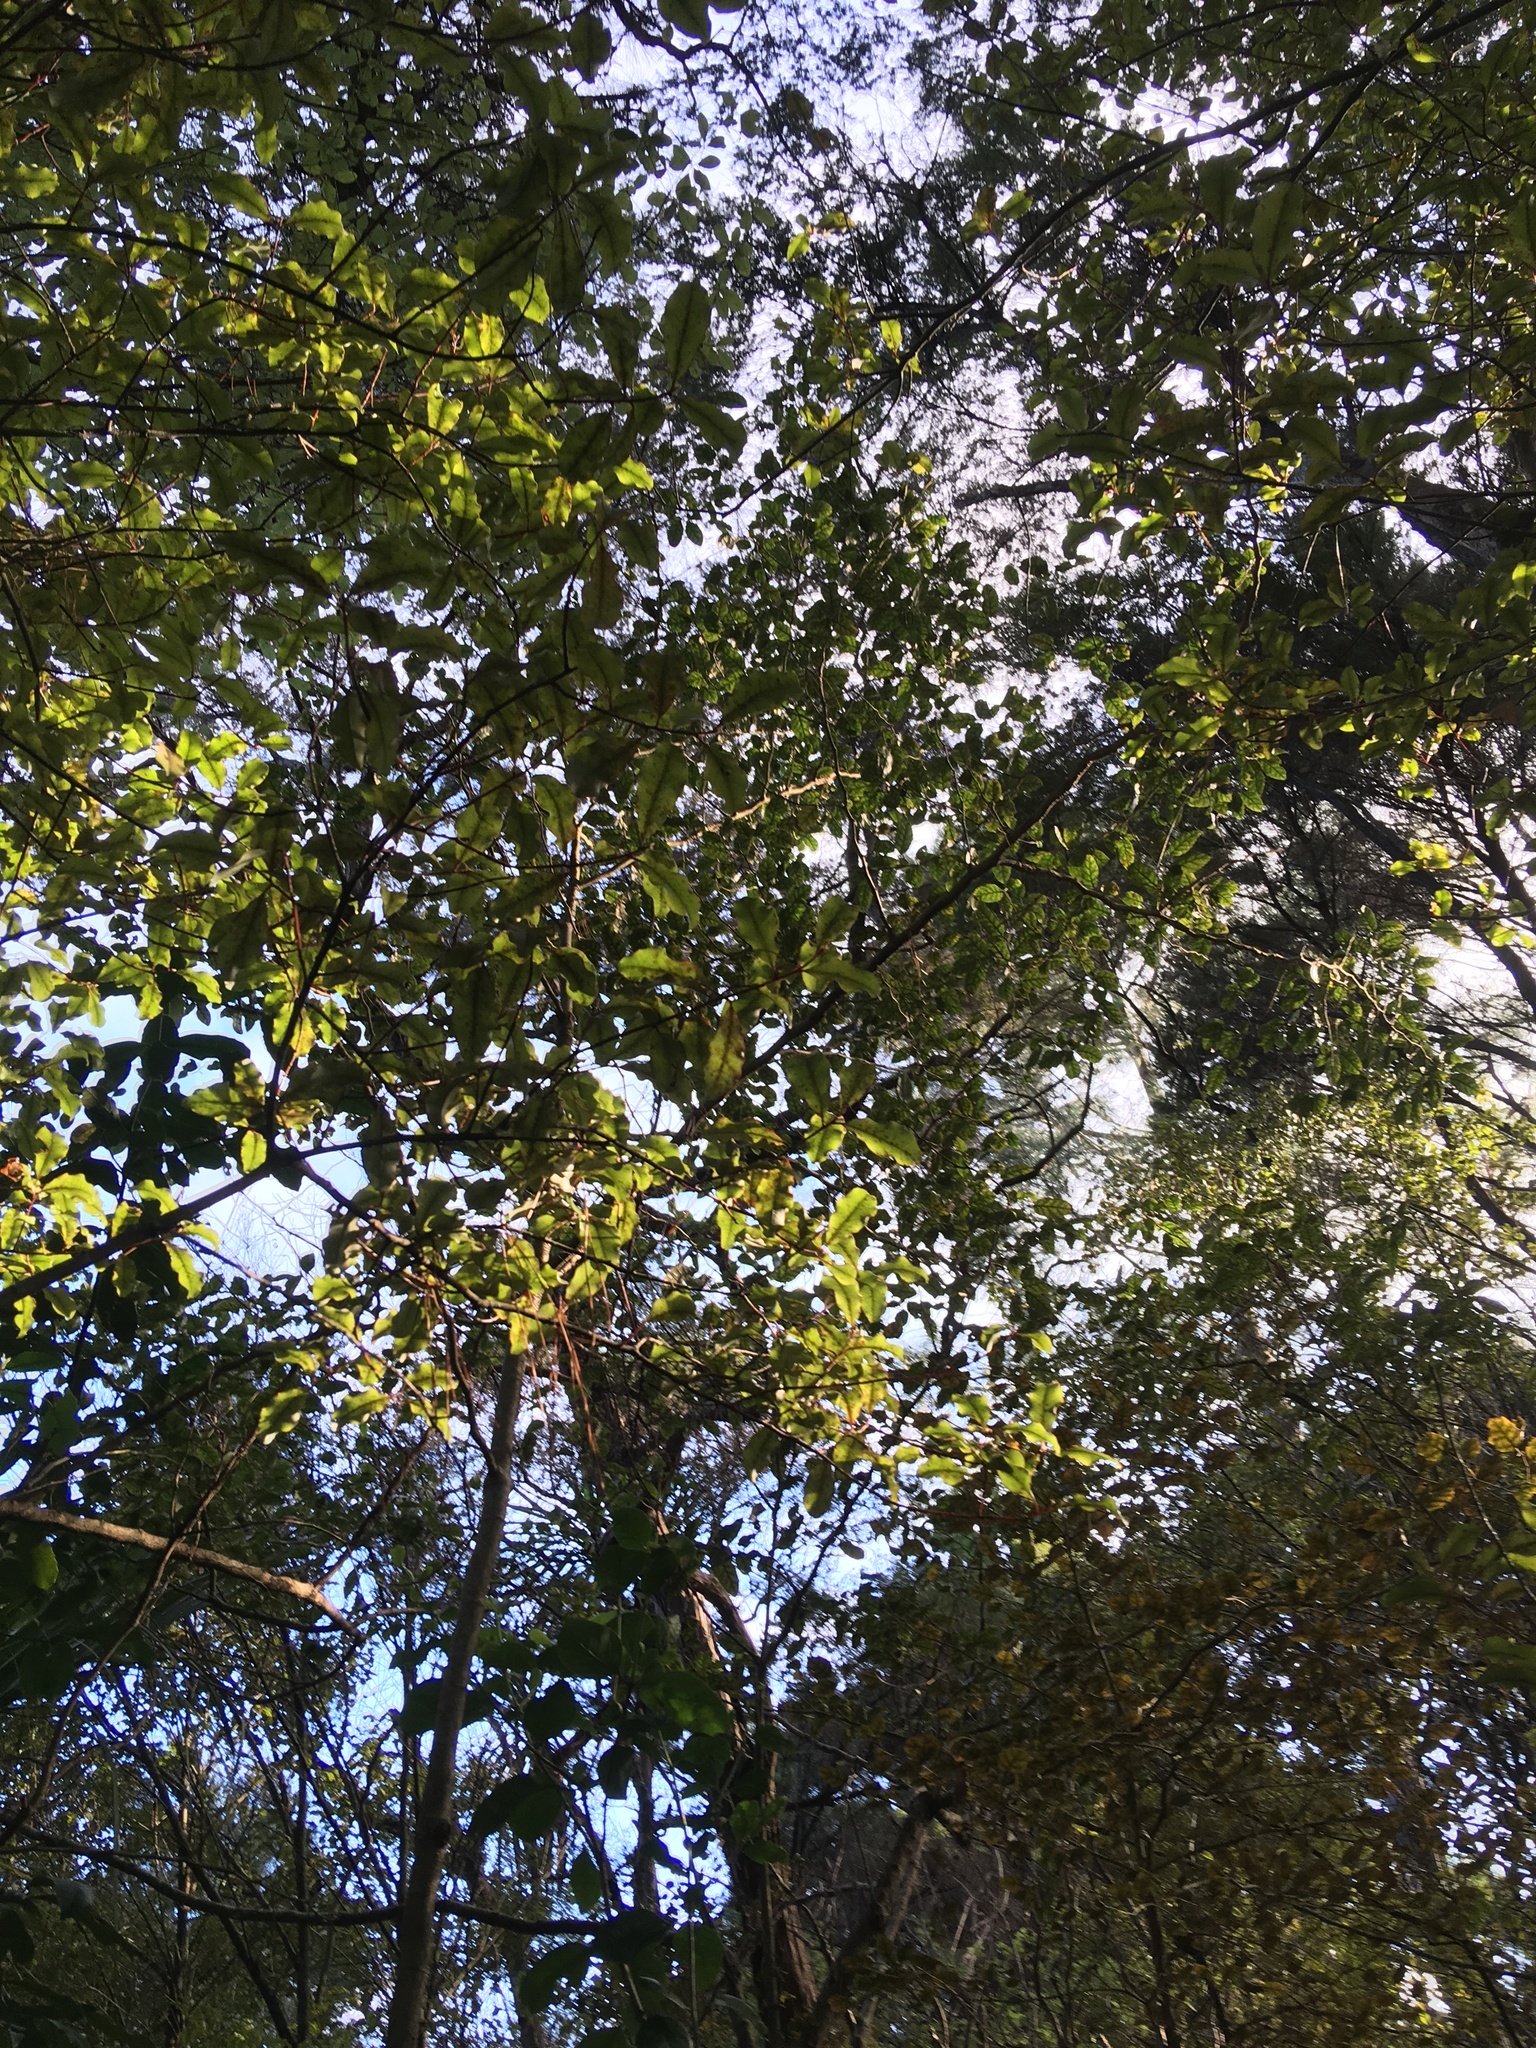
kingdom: Plantae
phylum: Tracheophyta
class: Magnoliopsida
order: Ericales
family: Primulaceae
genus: Myrsine
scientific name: Myrsine australis
